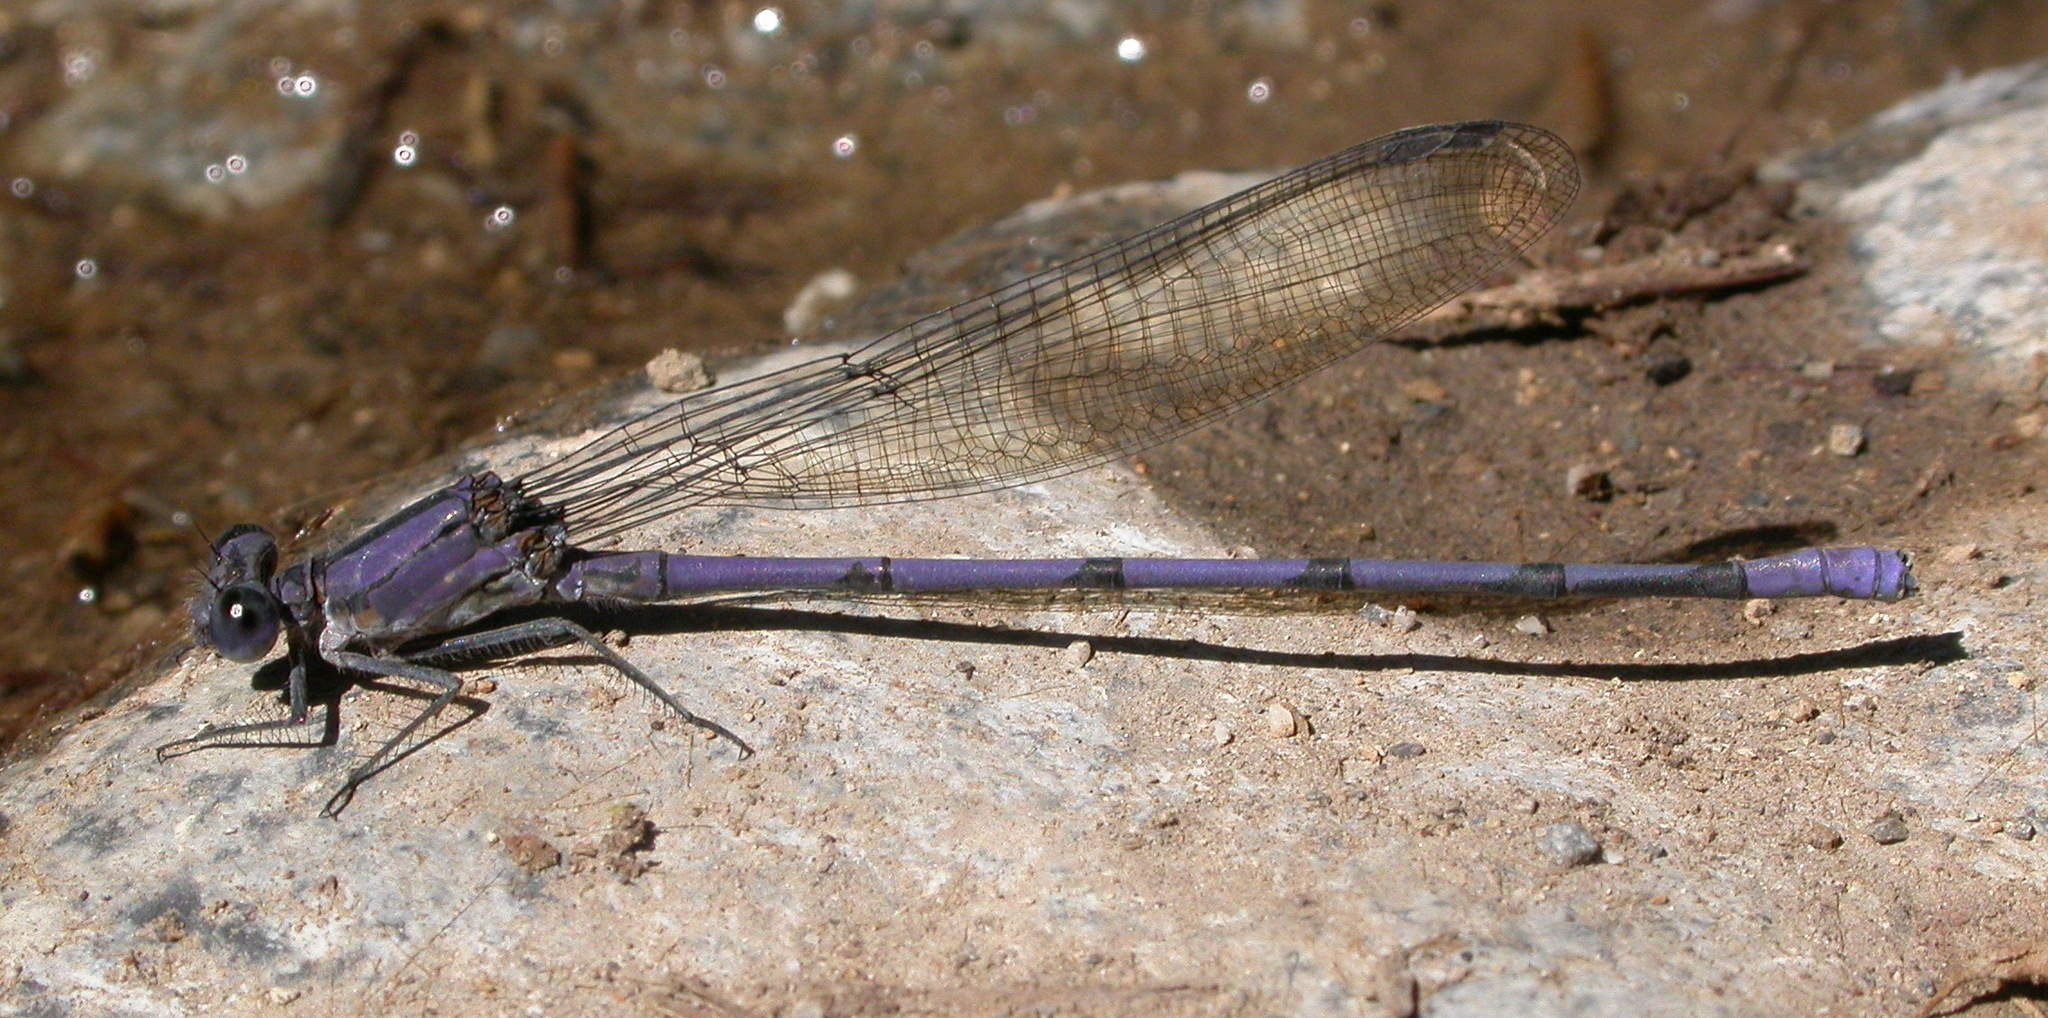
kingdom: Animalia
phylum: Arthropoda
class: Insecta
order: Odonata
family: Coenagrionidae
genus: Argia
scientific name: Argia tonto
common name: Tonto dancer
